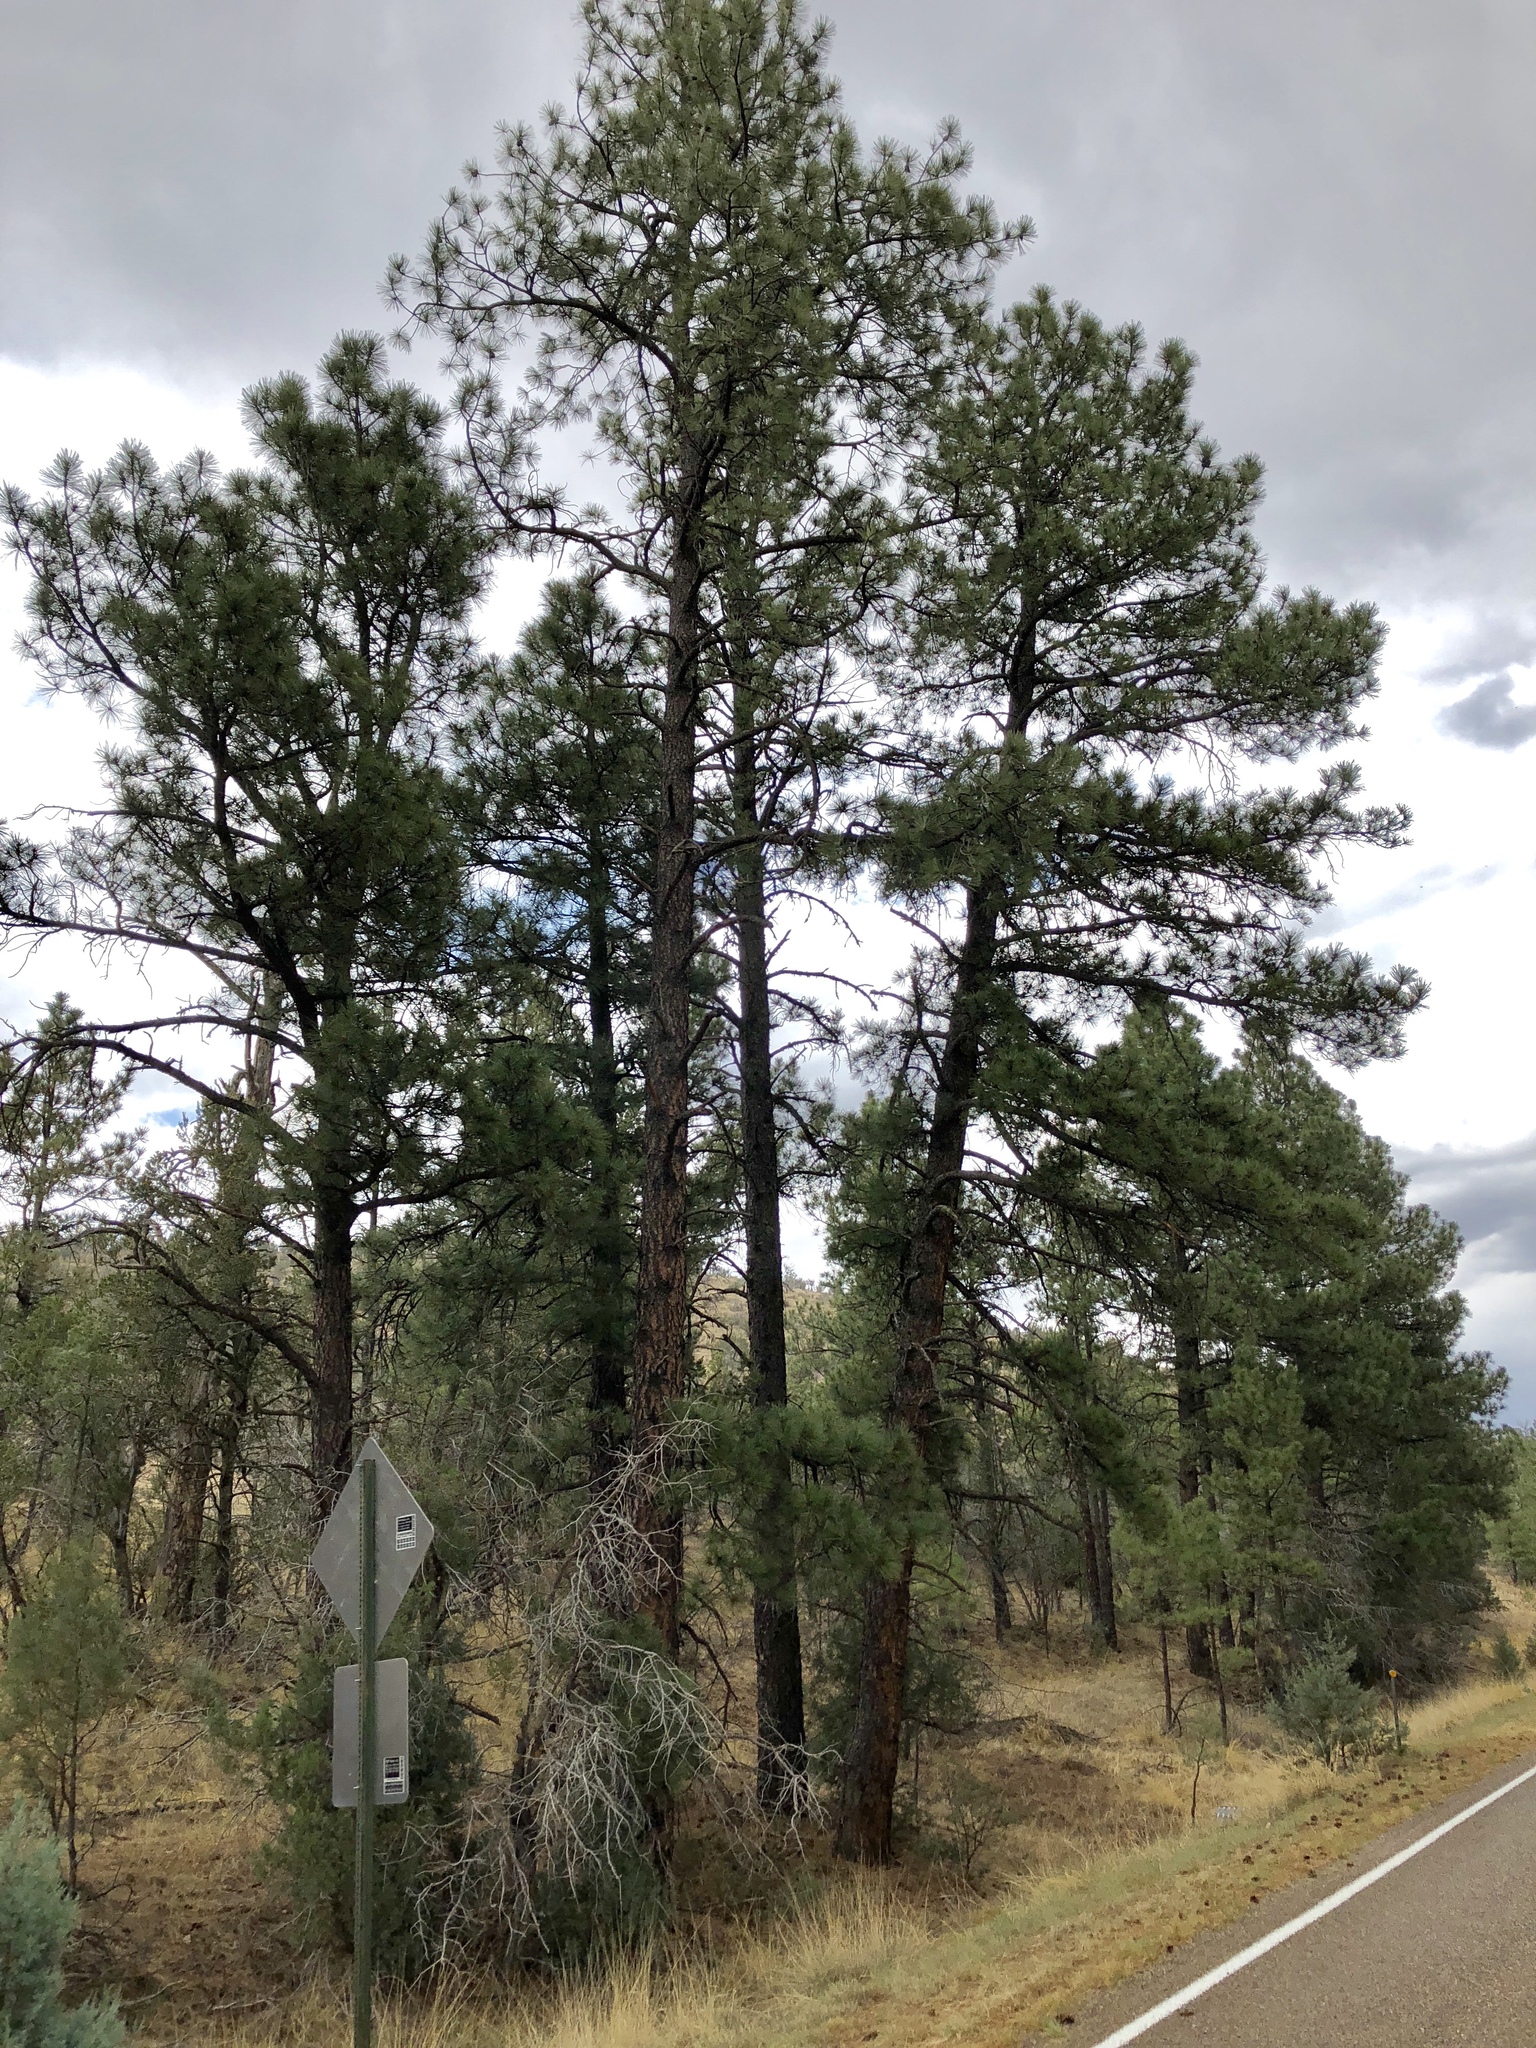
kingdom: Plantae
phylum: Tracheophyta
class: Pinopsida
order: Pinales
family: Pinaceae
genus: Pinus
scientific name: Pinus ponderosa
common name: Western yellow-pine
